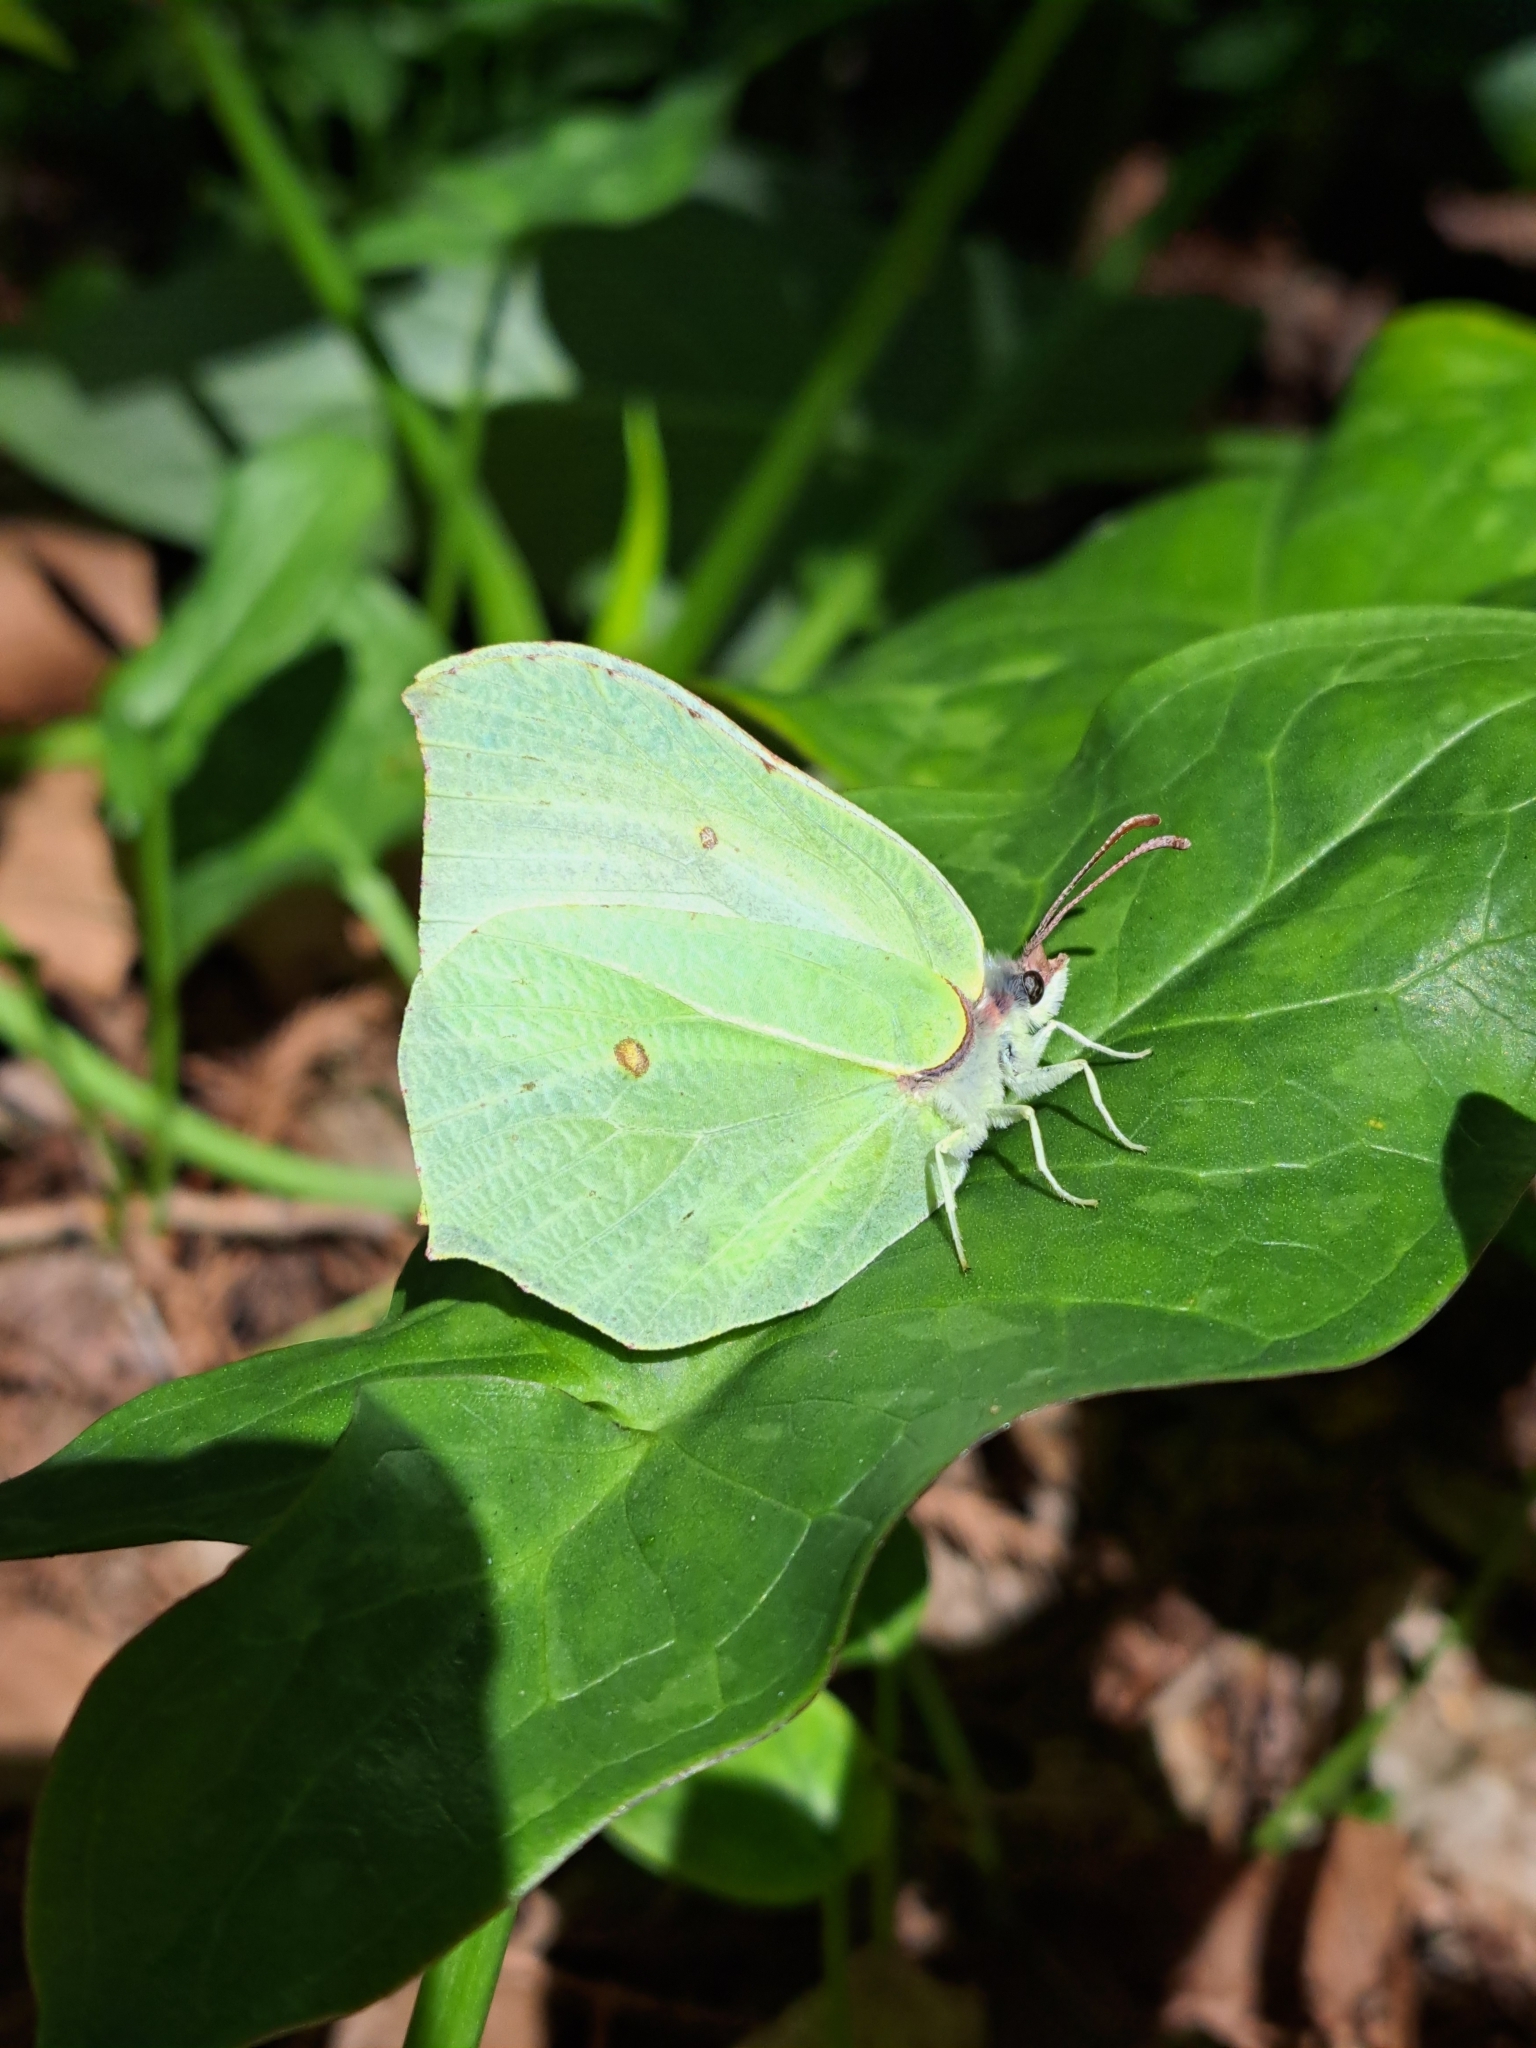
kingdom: Animalia
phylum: Arthropoda
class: Insecta
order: Lepidoptera
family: Pieridae
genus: Gonepteryx
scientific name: Gonepteryx rhamni
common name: Brimstone
